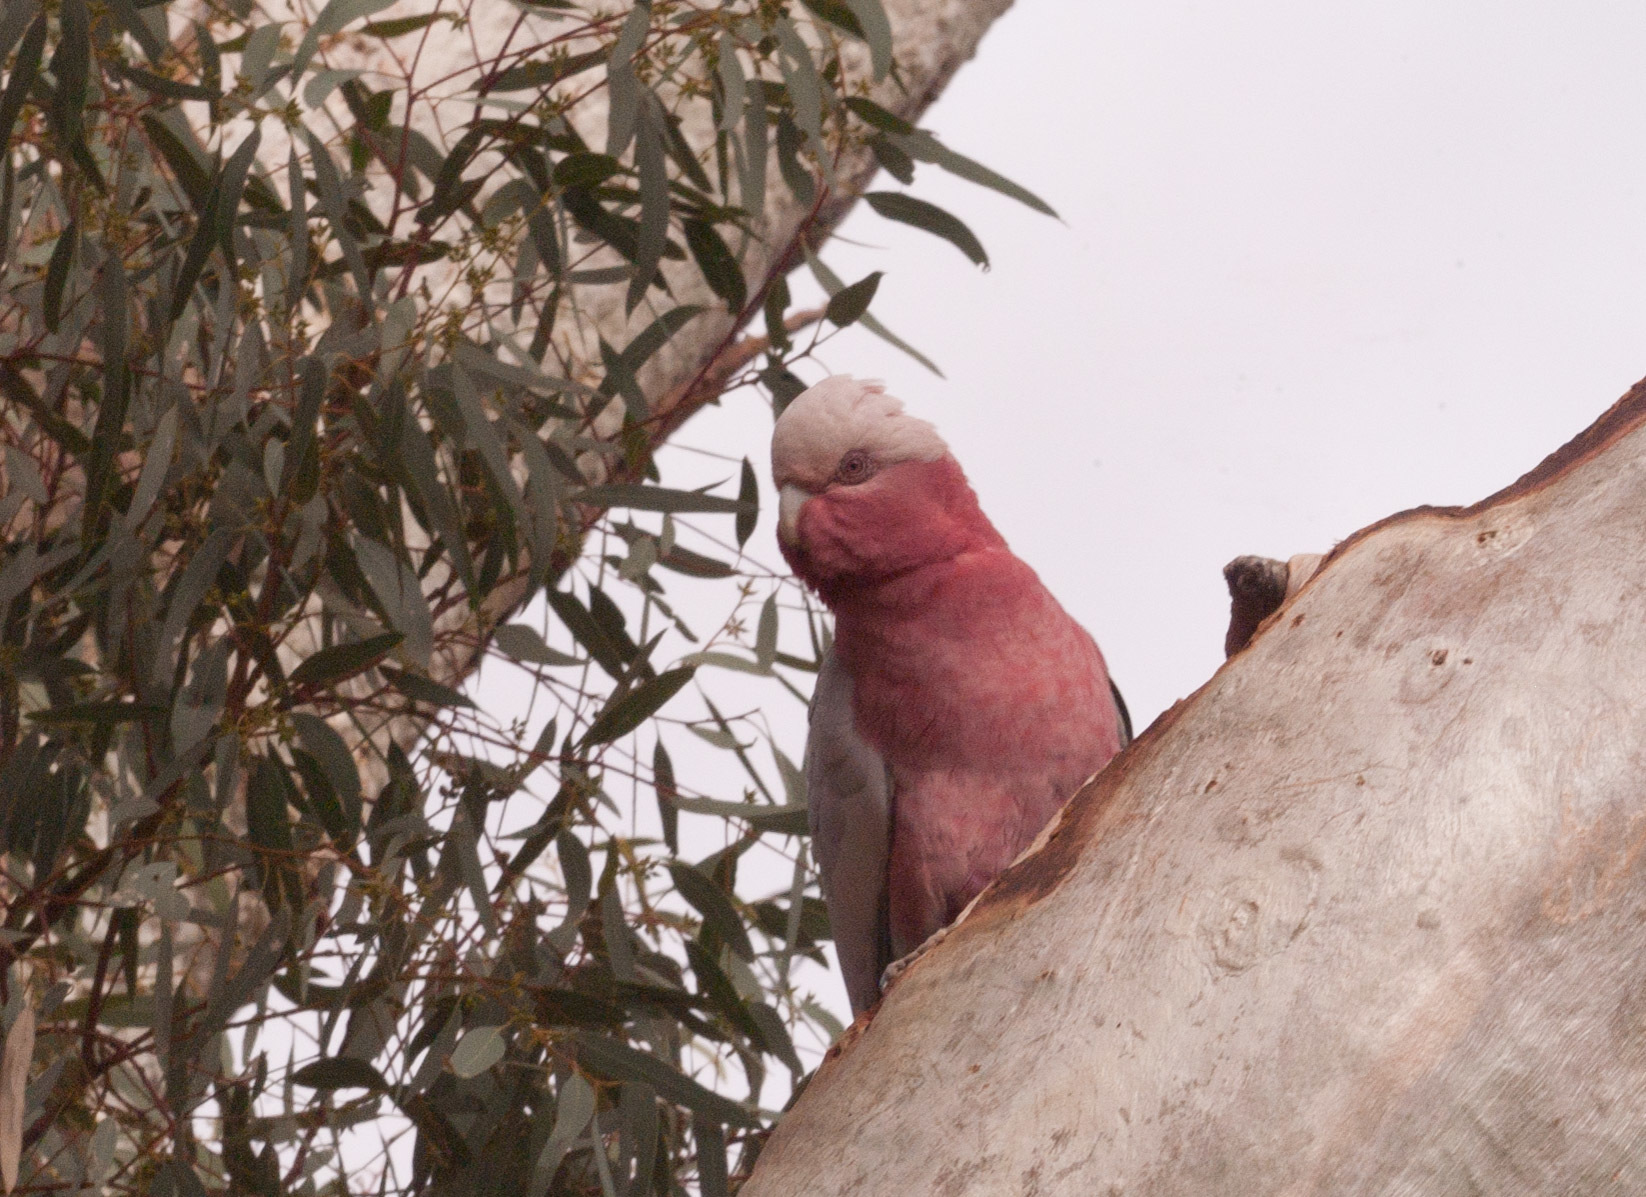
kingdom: Animalia
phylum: Chordata
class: Aves
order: Psittaciformes
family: Psittacidae
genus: Eolophus
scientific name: Eolophus roseicapilla
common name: Galah
